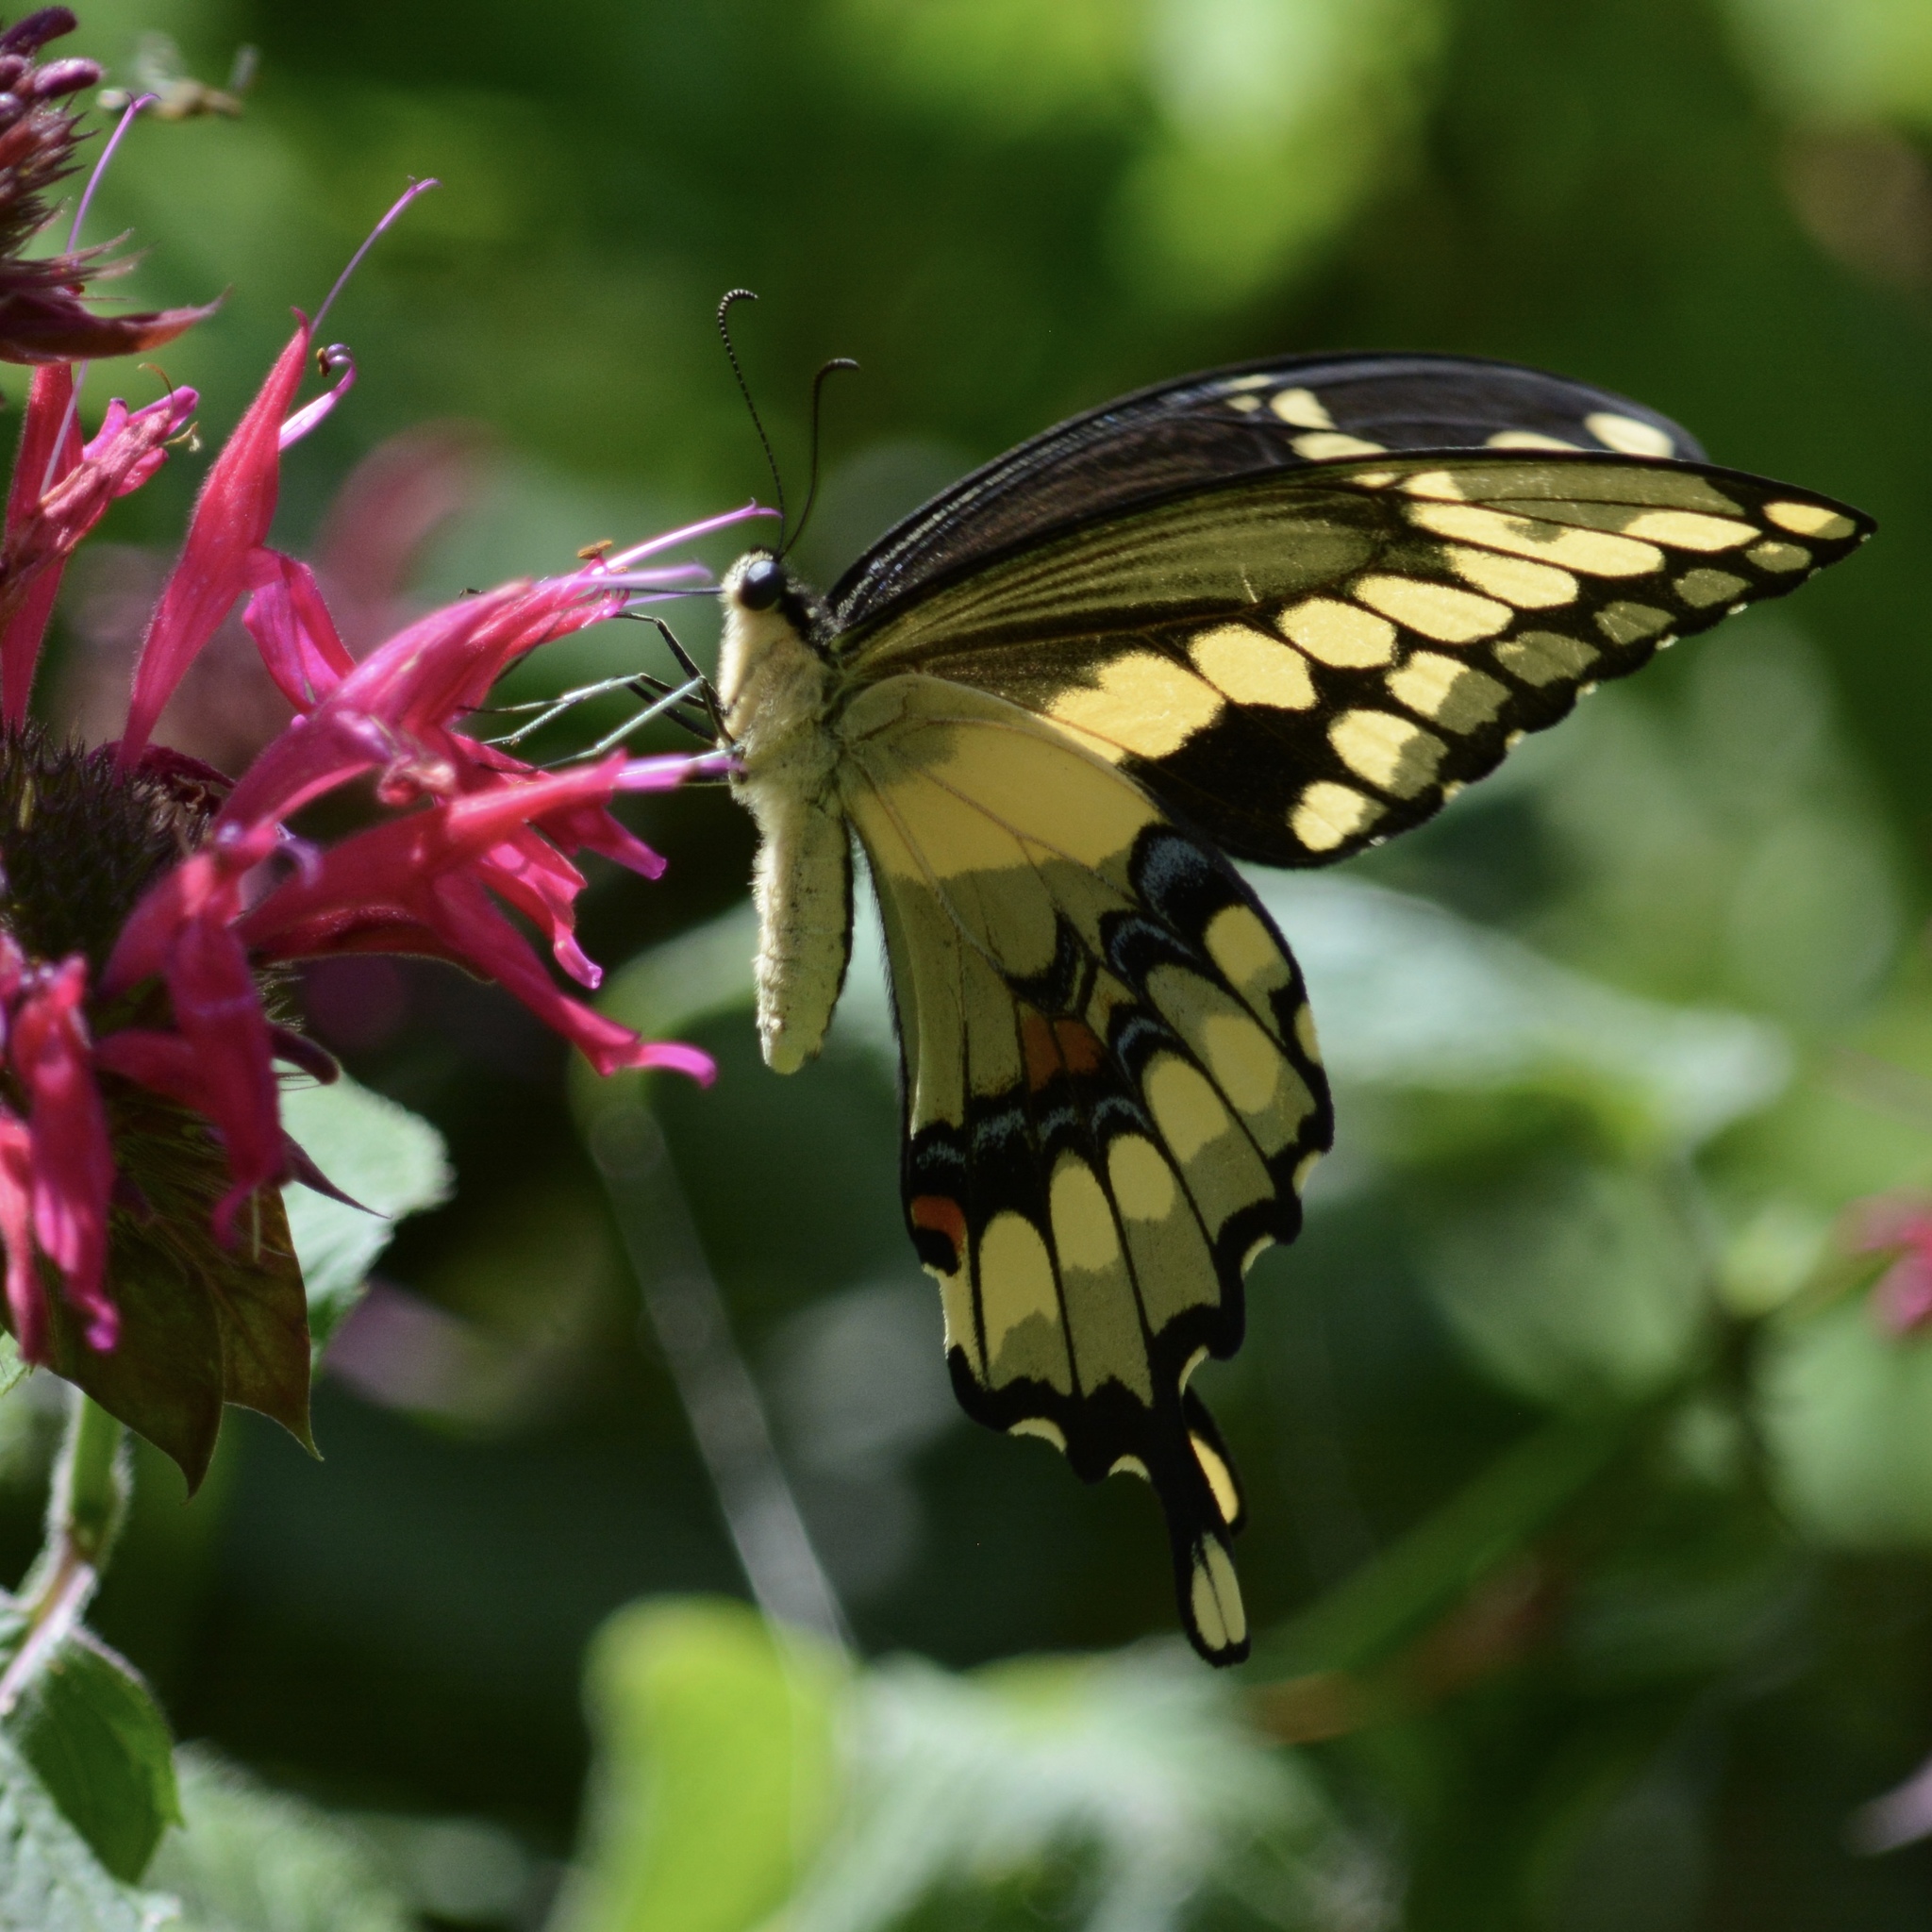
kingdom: Animalia
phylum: Arthropoda
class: Insecta
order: Lepidoptera
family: Papilionidae
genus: Papilio
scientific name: Papilio cresphontes
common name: Giant swallowtail
